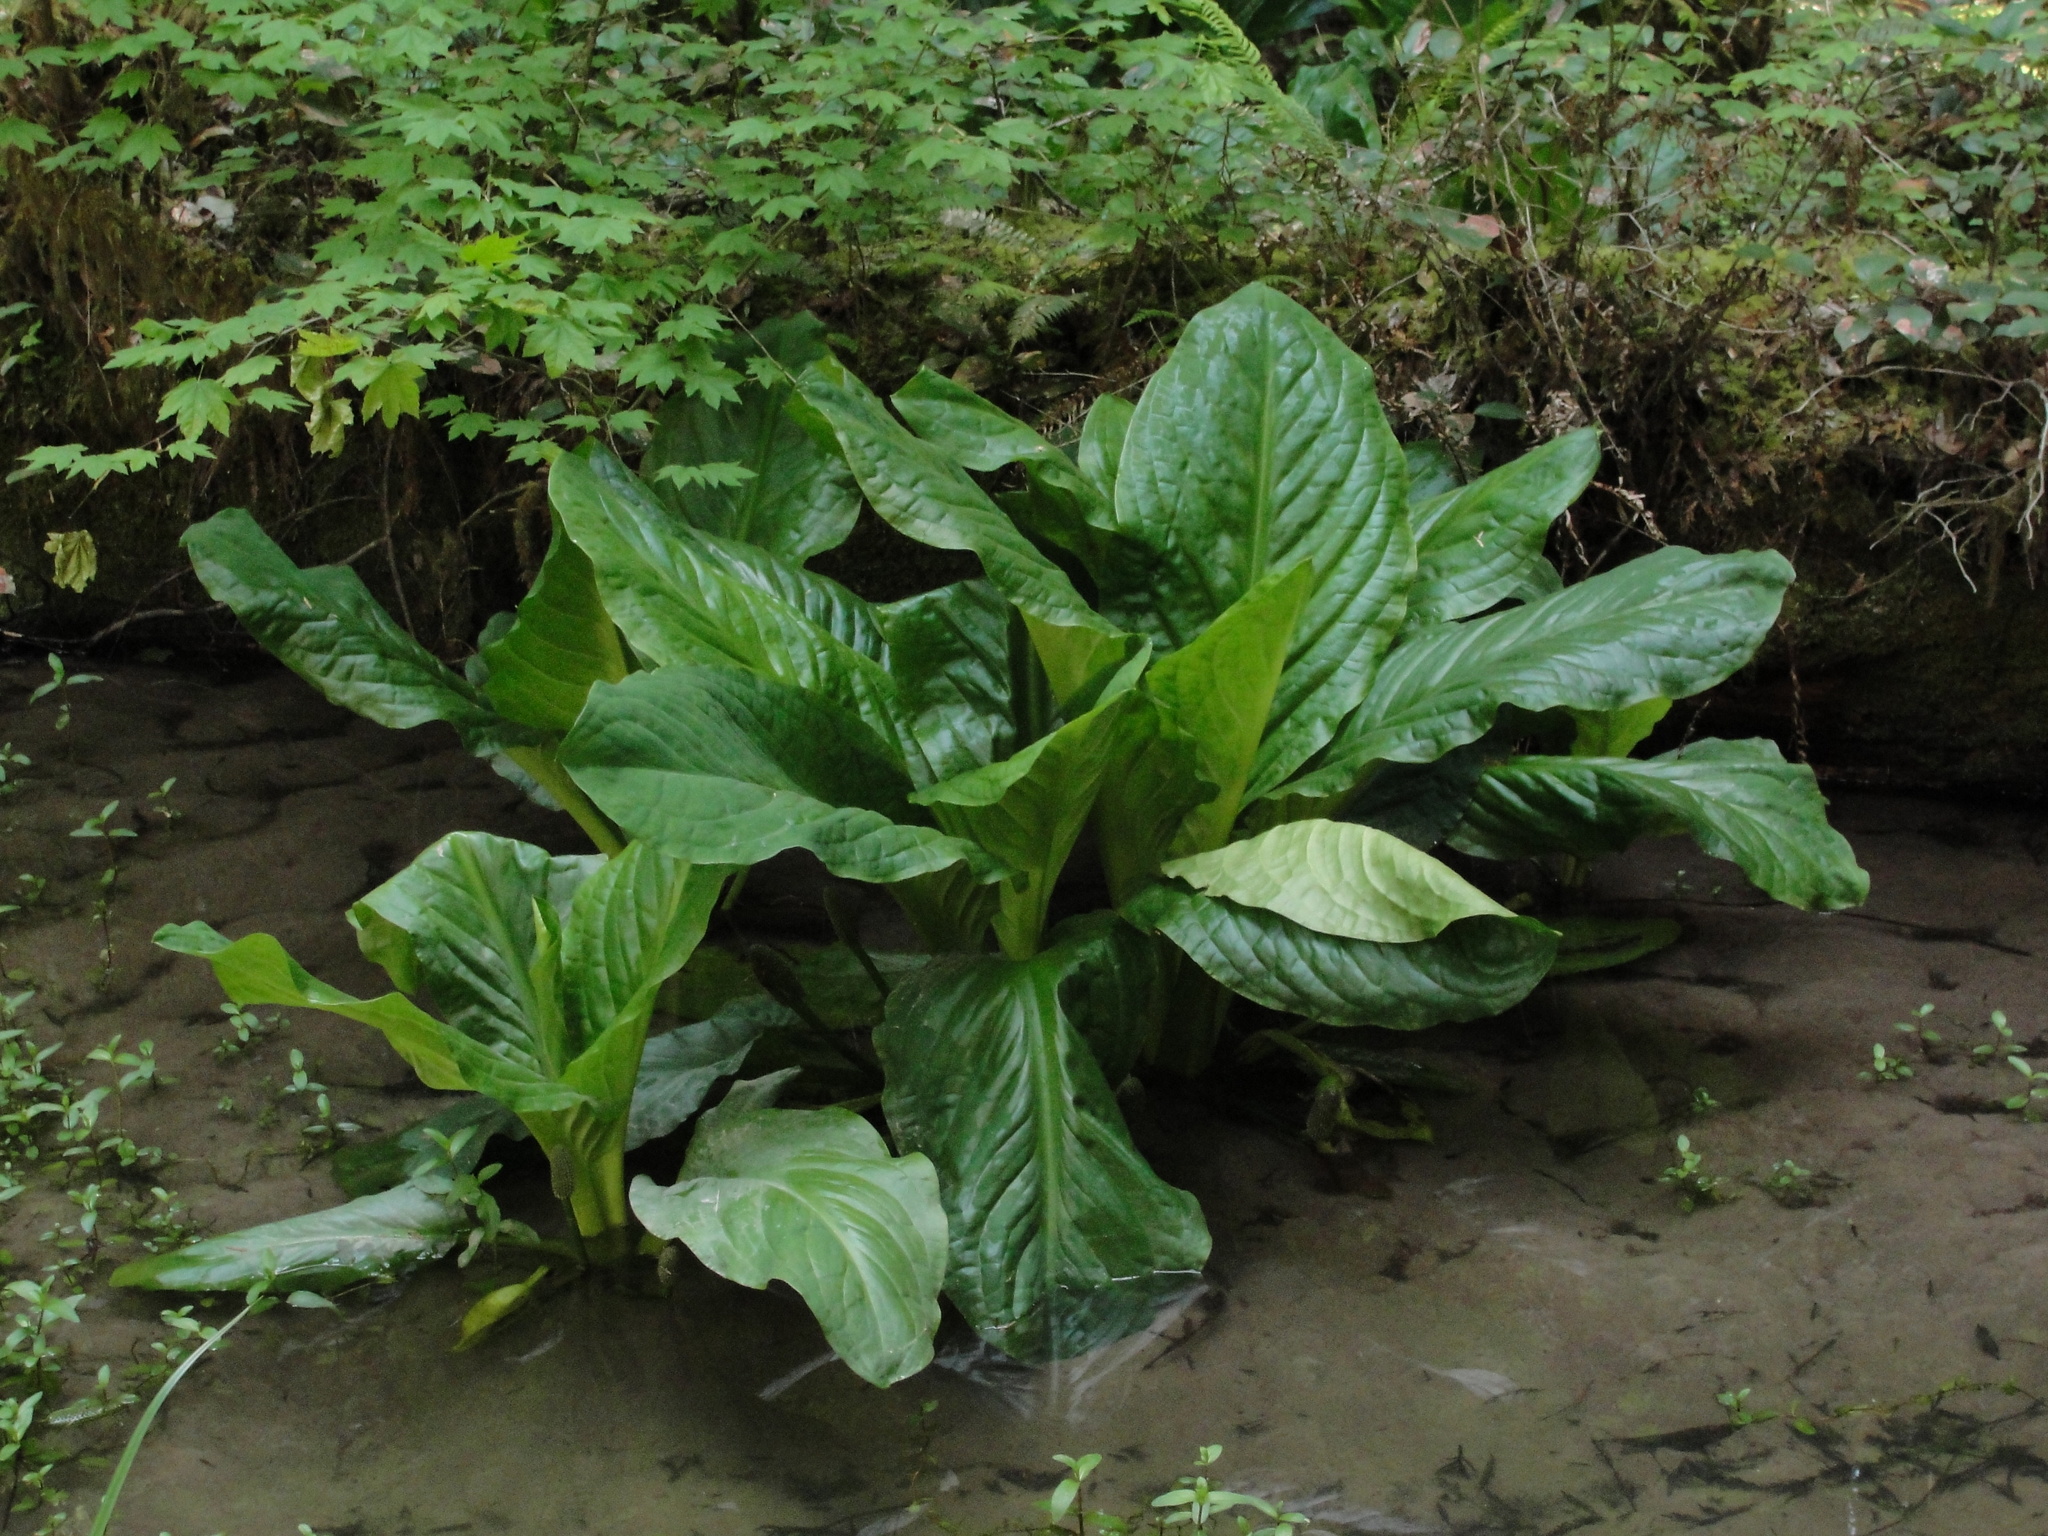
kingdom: Plantae
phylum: Tracheophyta
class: Liliopsida
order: Alismatales
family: Araceae
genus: Lysichiton
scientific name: Lysichiton americanus
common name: American skunk cabbage
